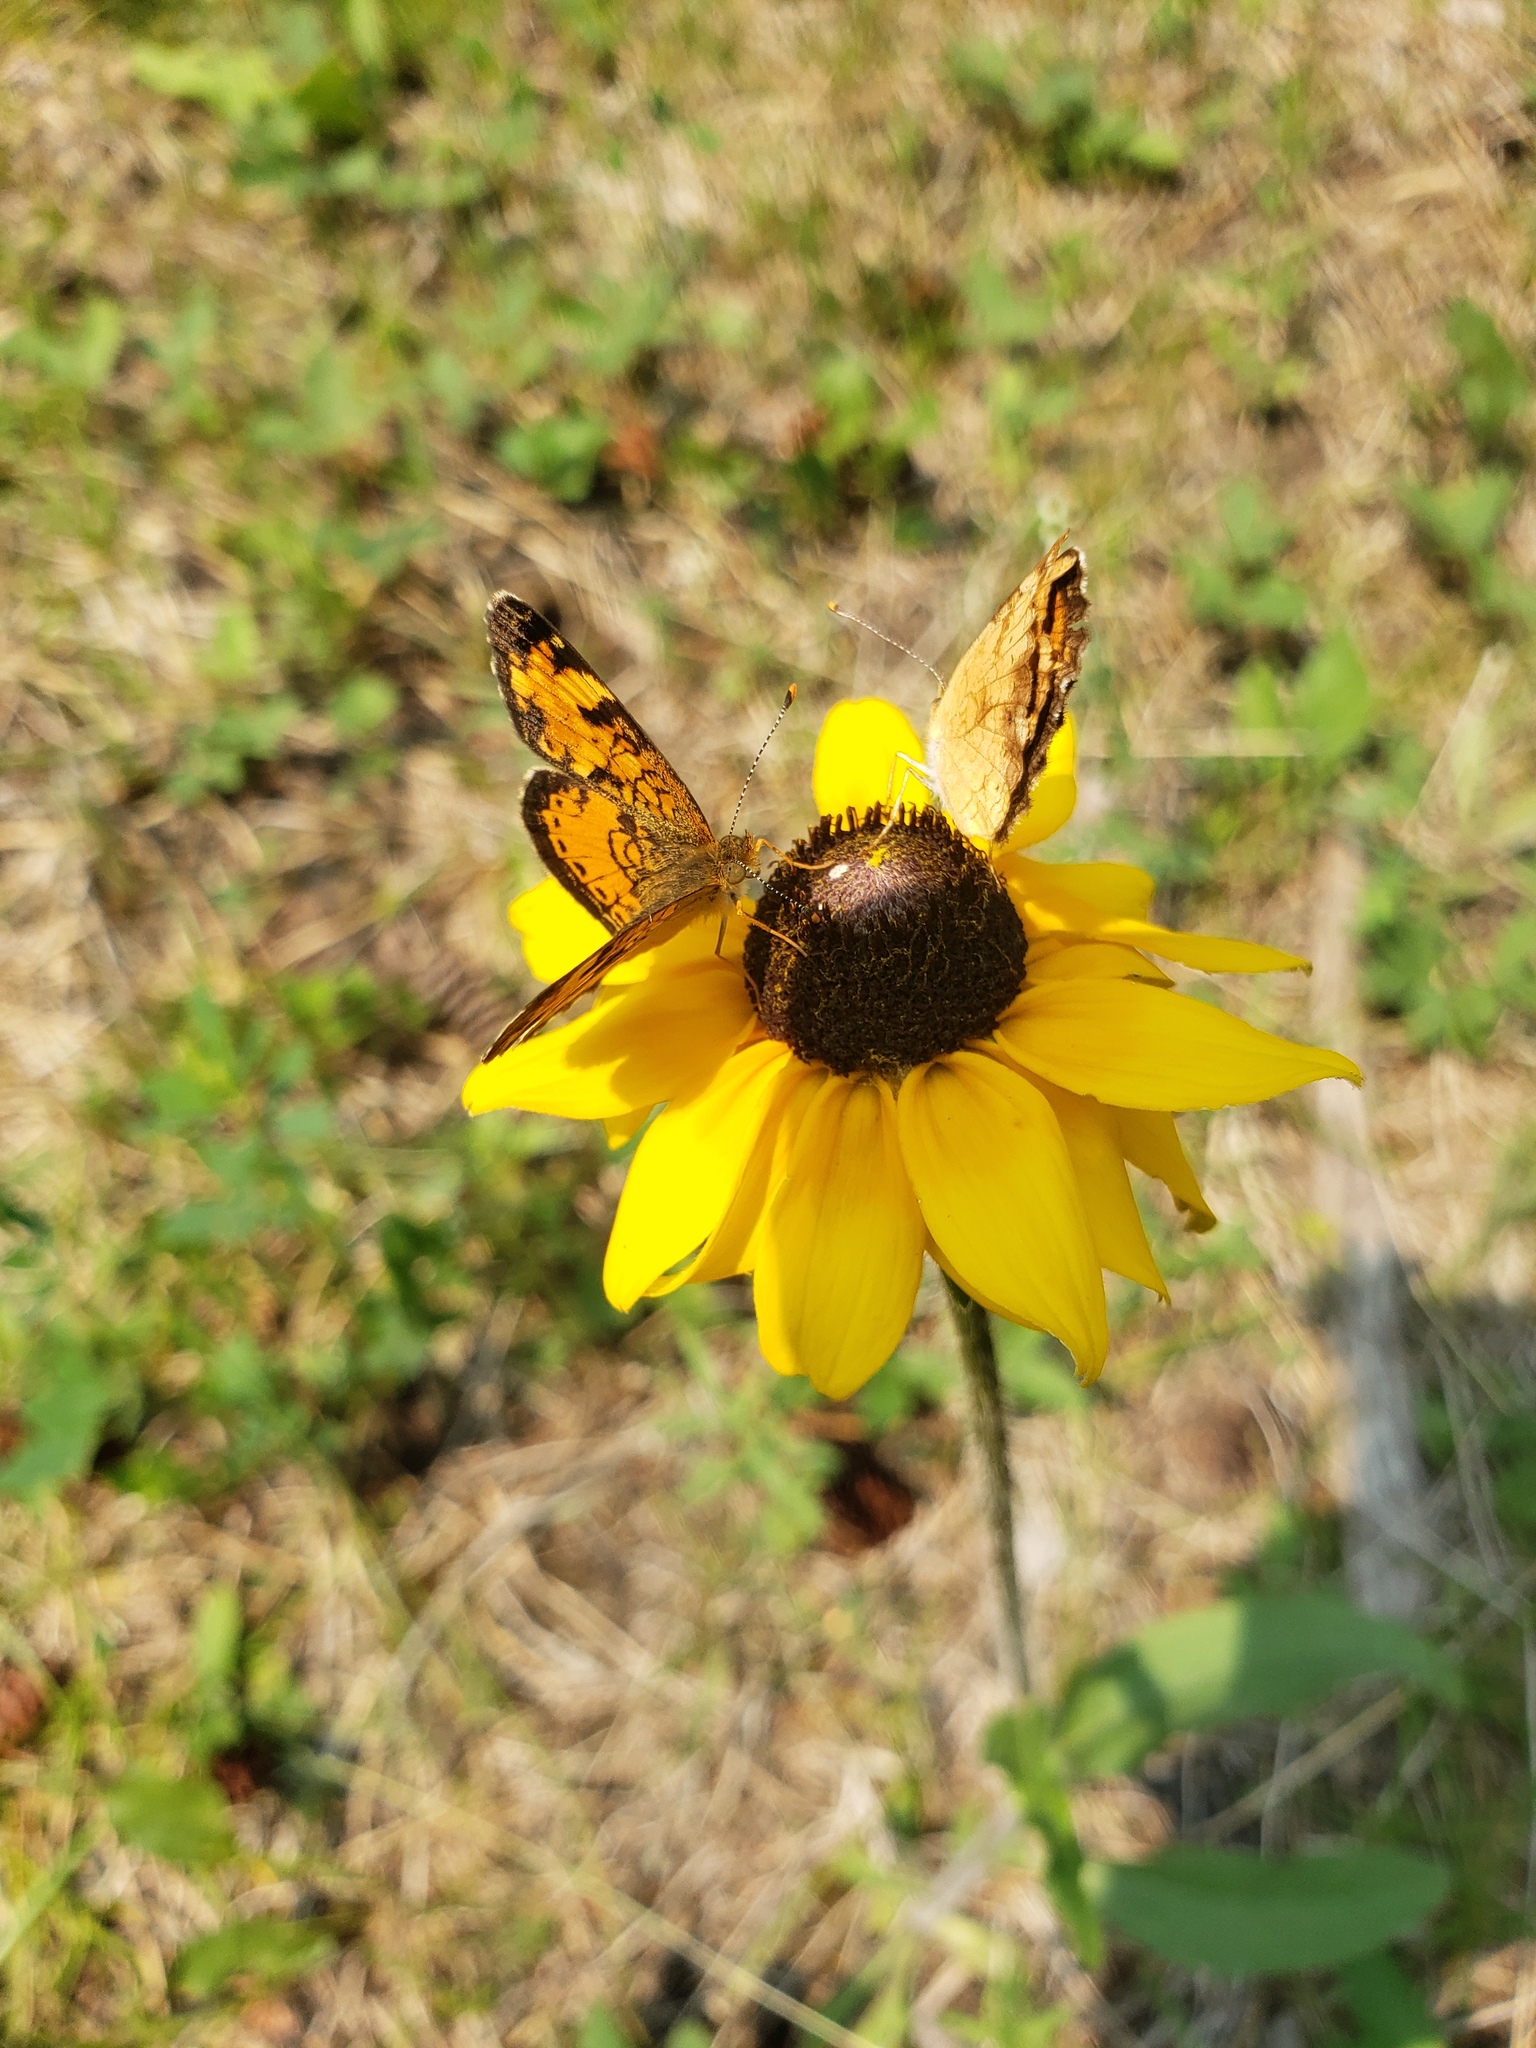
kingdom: Animalia
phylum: Arthropoda
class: Insecta
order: Lepidoptera
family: Nymphalidae
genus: Phyciodes
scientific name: Phyciodes tharos
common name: Pearl crescent
